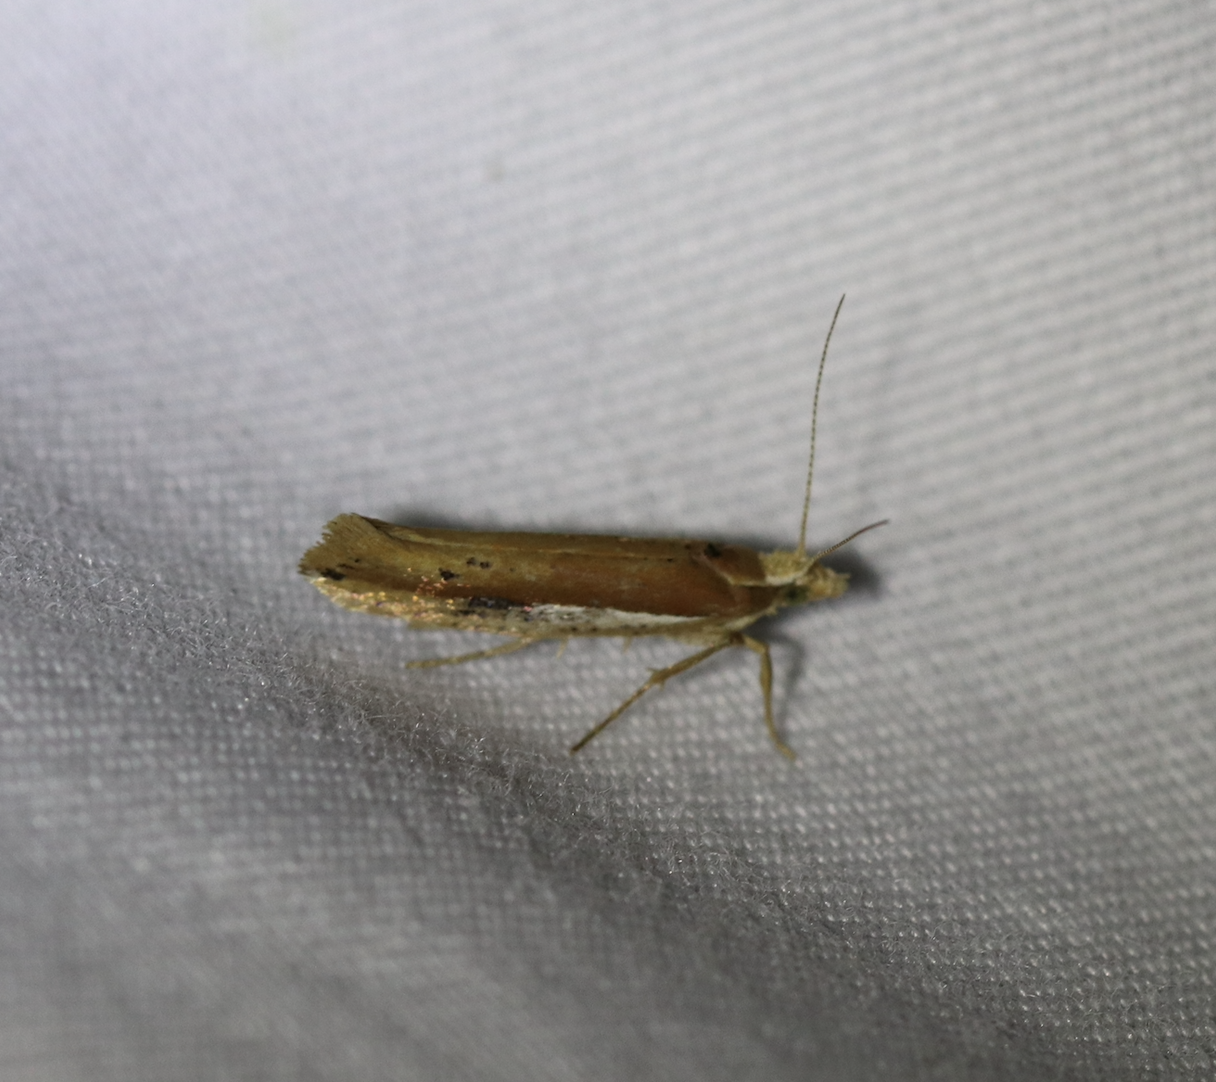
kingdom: Animalia
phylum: Arthropoda
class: Insecta
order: Lepidoptera
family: Ypsolophidae
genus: Ypsolopha
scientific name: Ypsolopha parenthesella
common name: White-shouldered smudge
